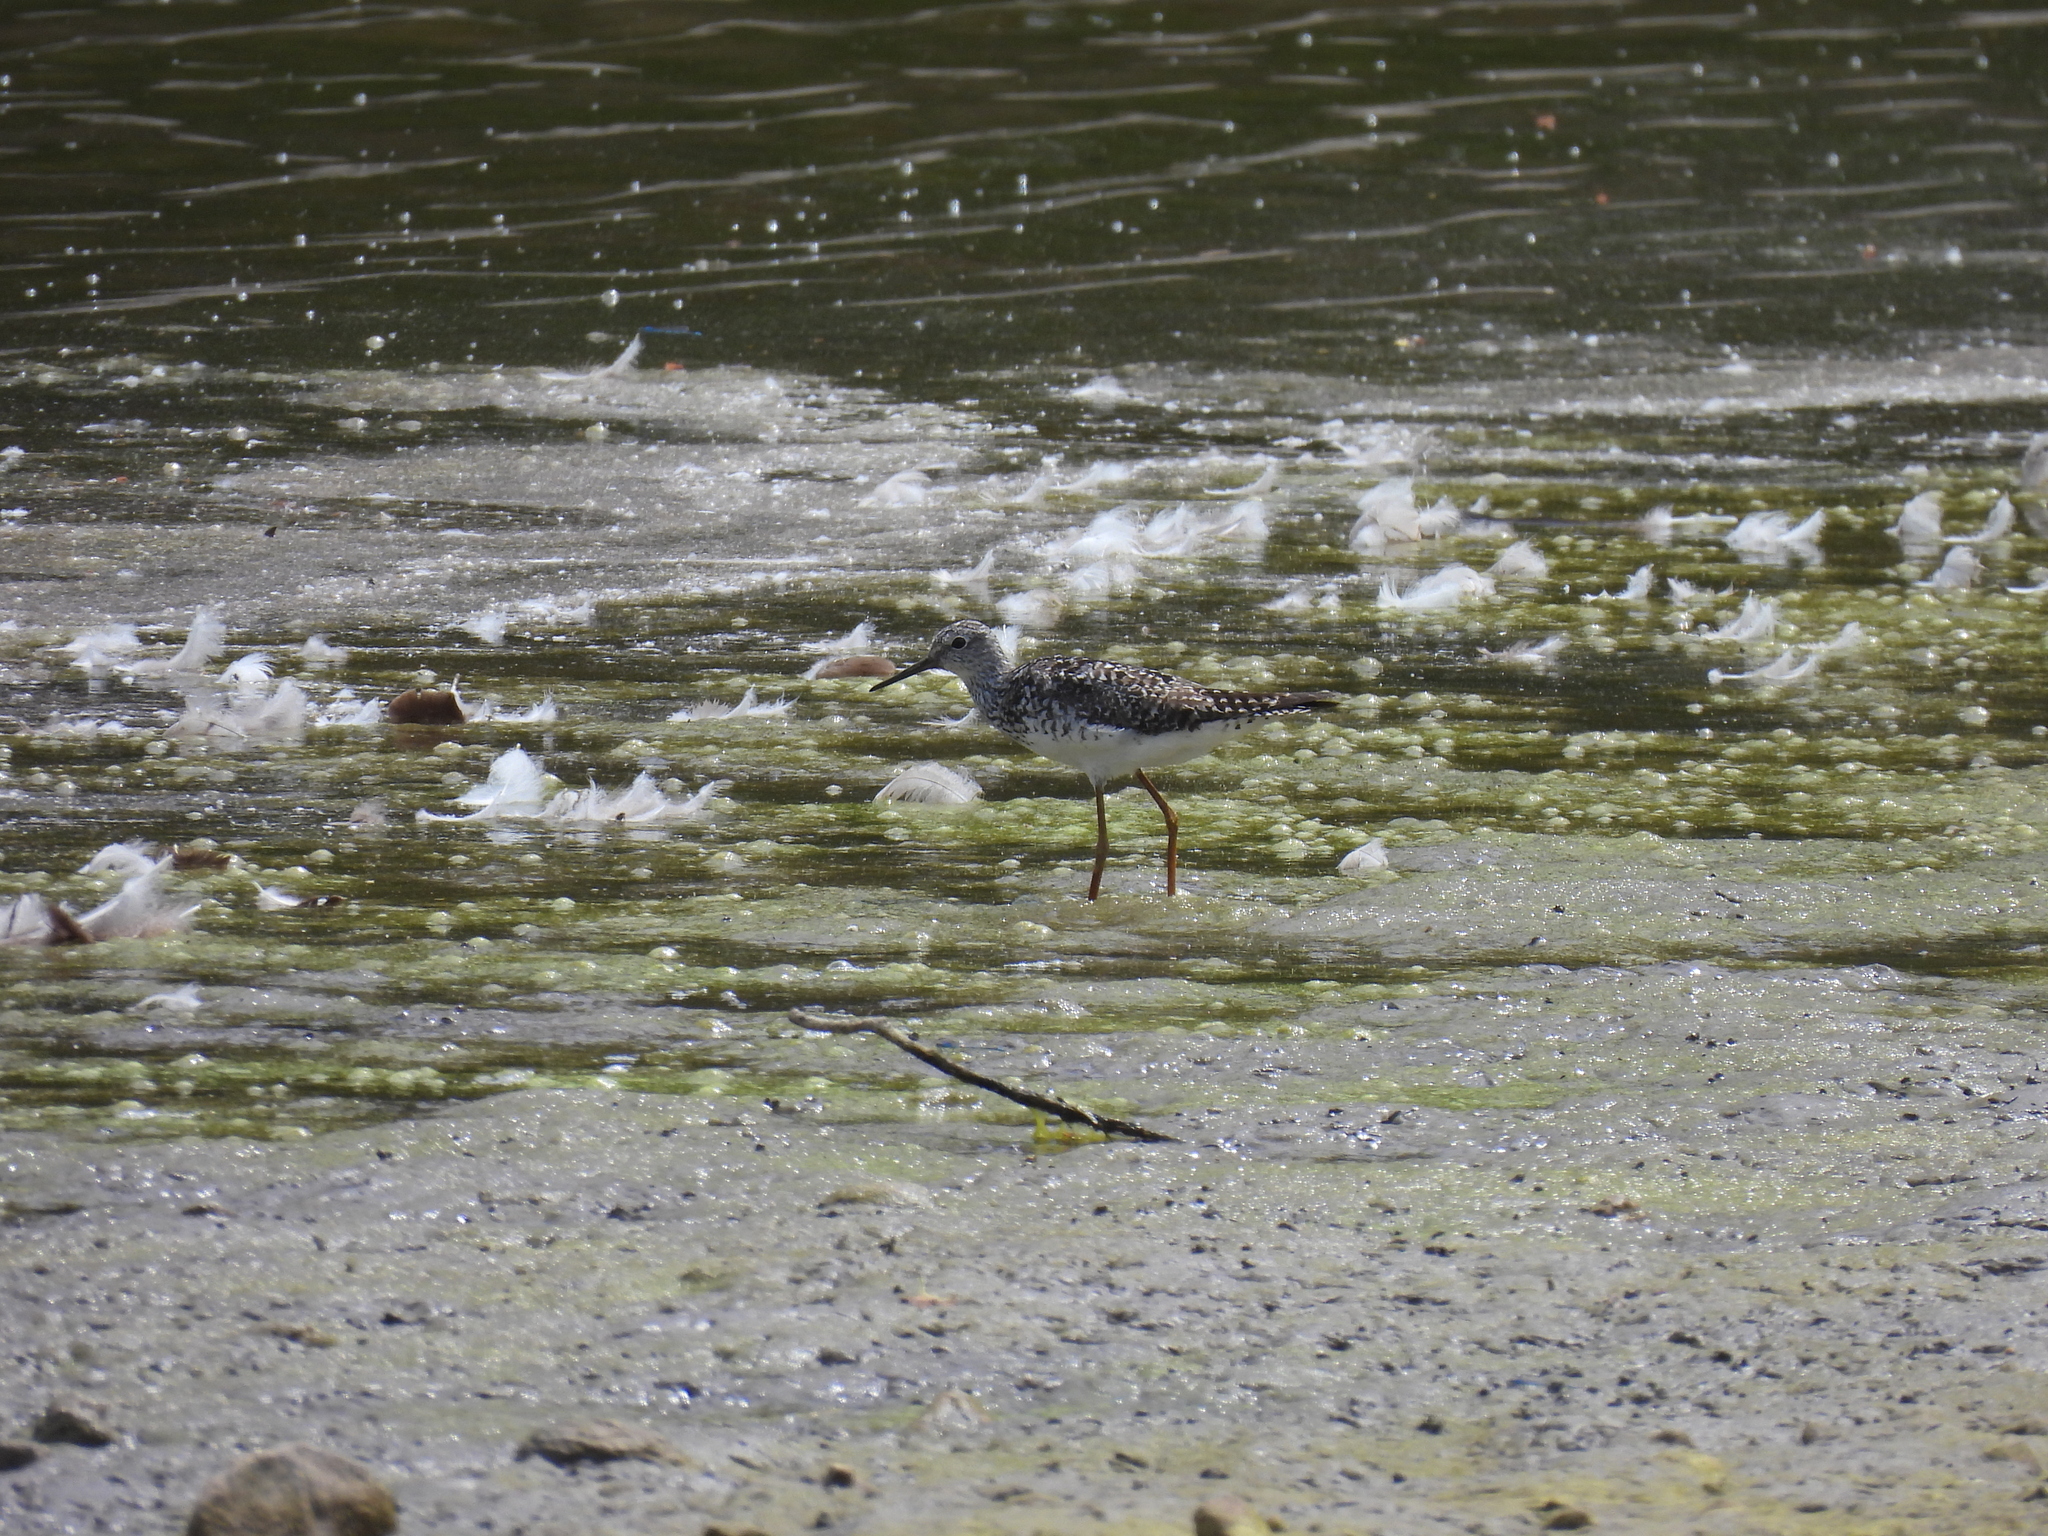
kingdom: Animalia
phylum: Chordata
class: Aves
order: Charadriiformes
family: Scolopacidae
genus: Tringa
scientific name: Tringa flavipes
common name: Lesser yellowlegs
